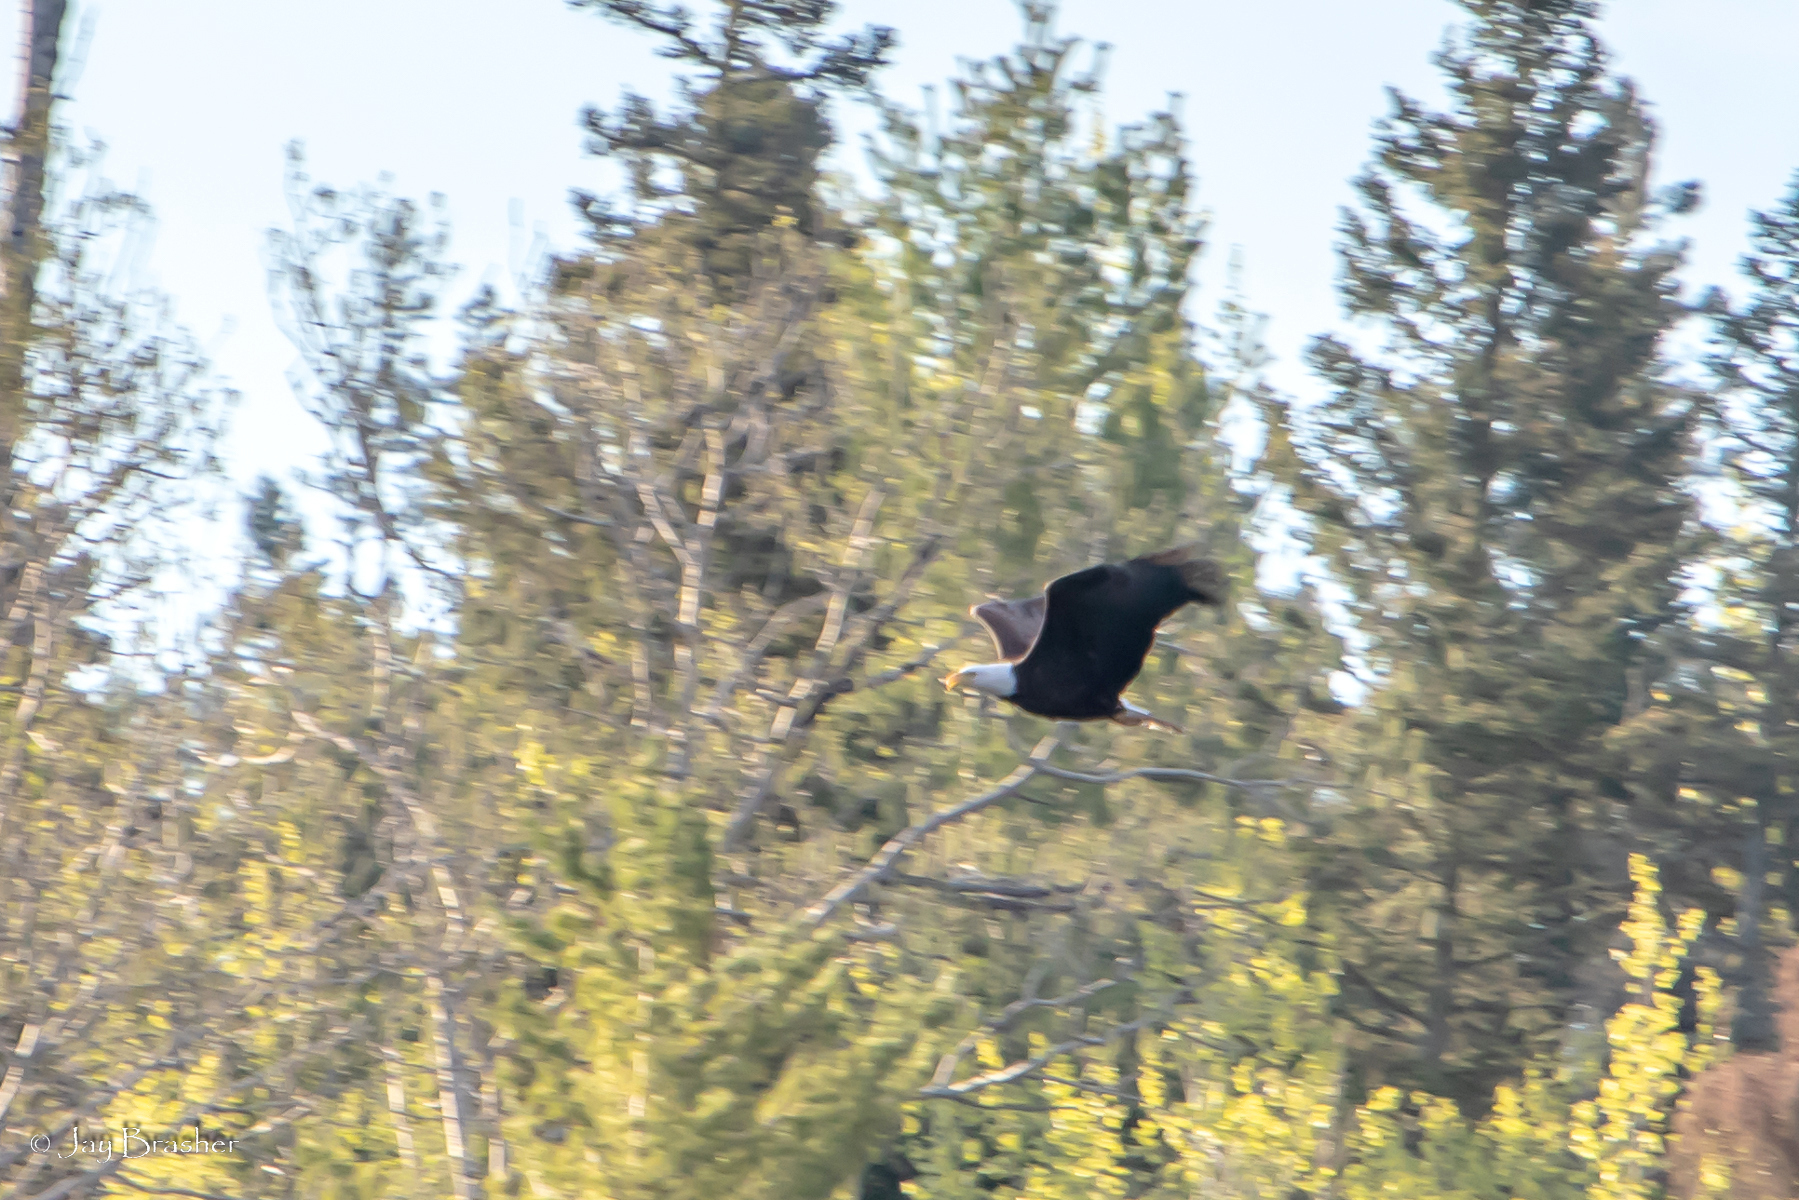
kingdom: Animalia
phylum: Chordata
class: Aves
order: Accipitriformes
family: Accipitridae
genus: Haliaeetus
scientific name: Haliaeetus leucocephalus
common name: Bald eagle
